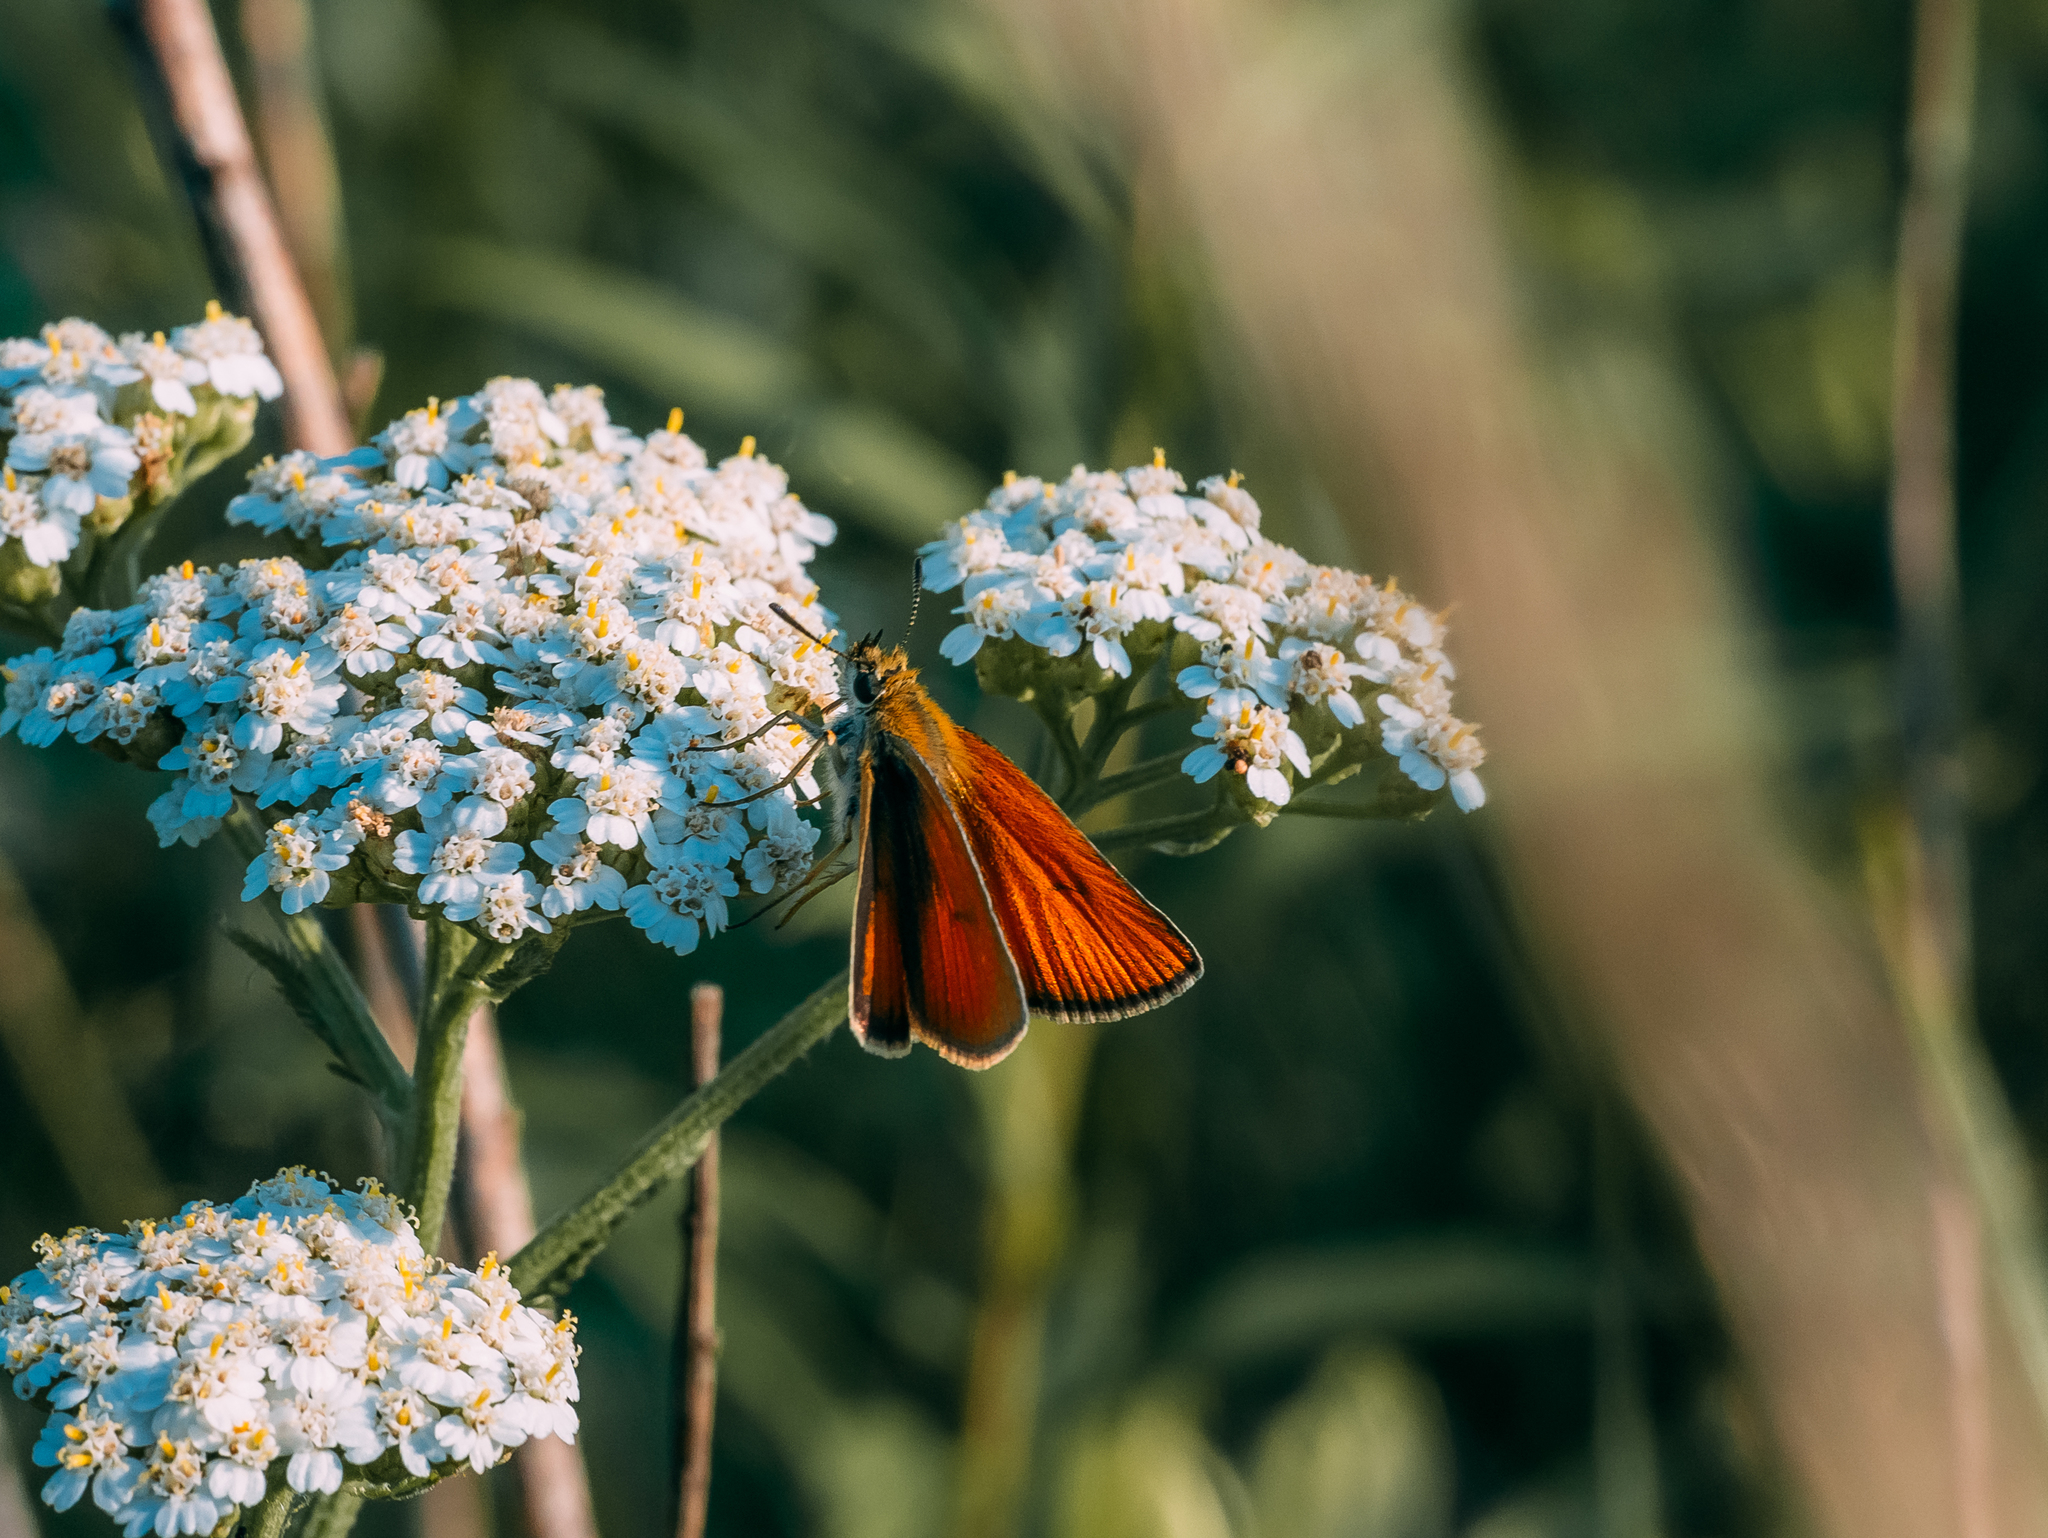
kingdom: Animalia
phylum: Arthropoda
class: Insecta
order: Lepidoptera
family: Hesperiidae
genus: Thymelicus
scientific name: Thymelicus lineola
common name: Essex skipper
